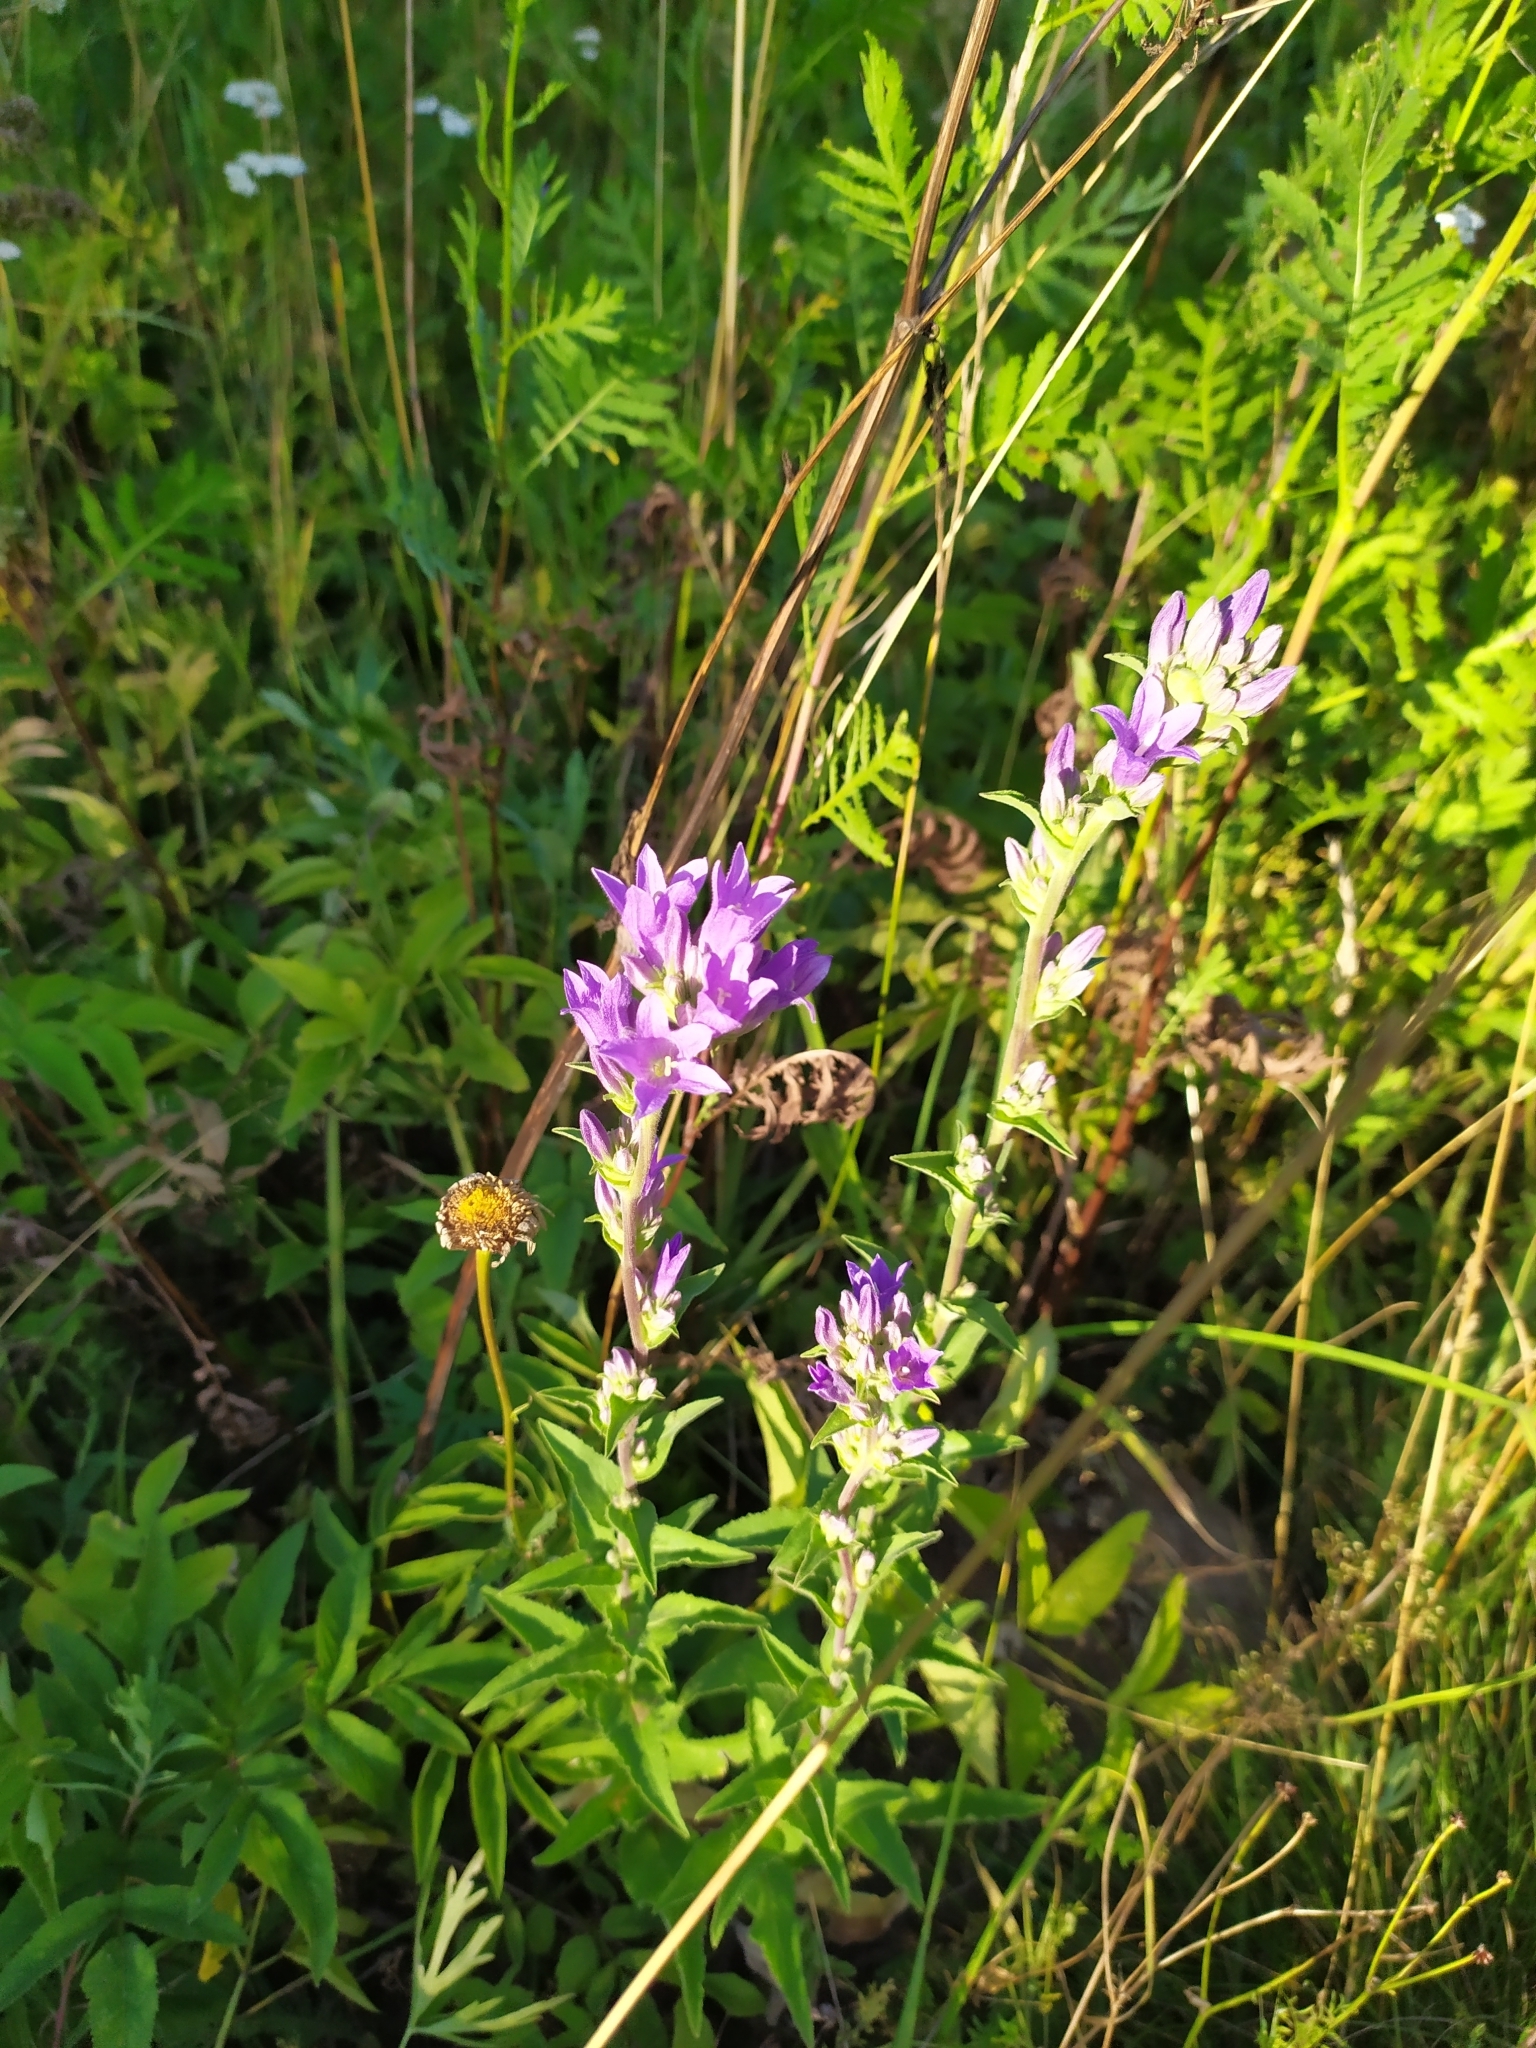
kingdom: Plantae
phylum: Tracheophyta
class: Magnoliopsida
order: Asterales
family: Campanulaceae
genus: Campanula
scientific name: Campanula glomerata
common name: Clustered bellflower
